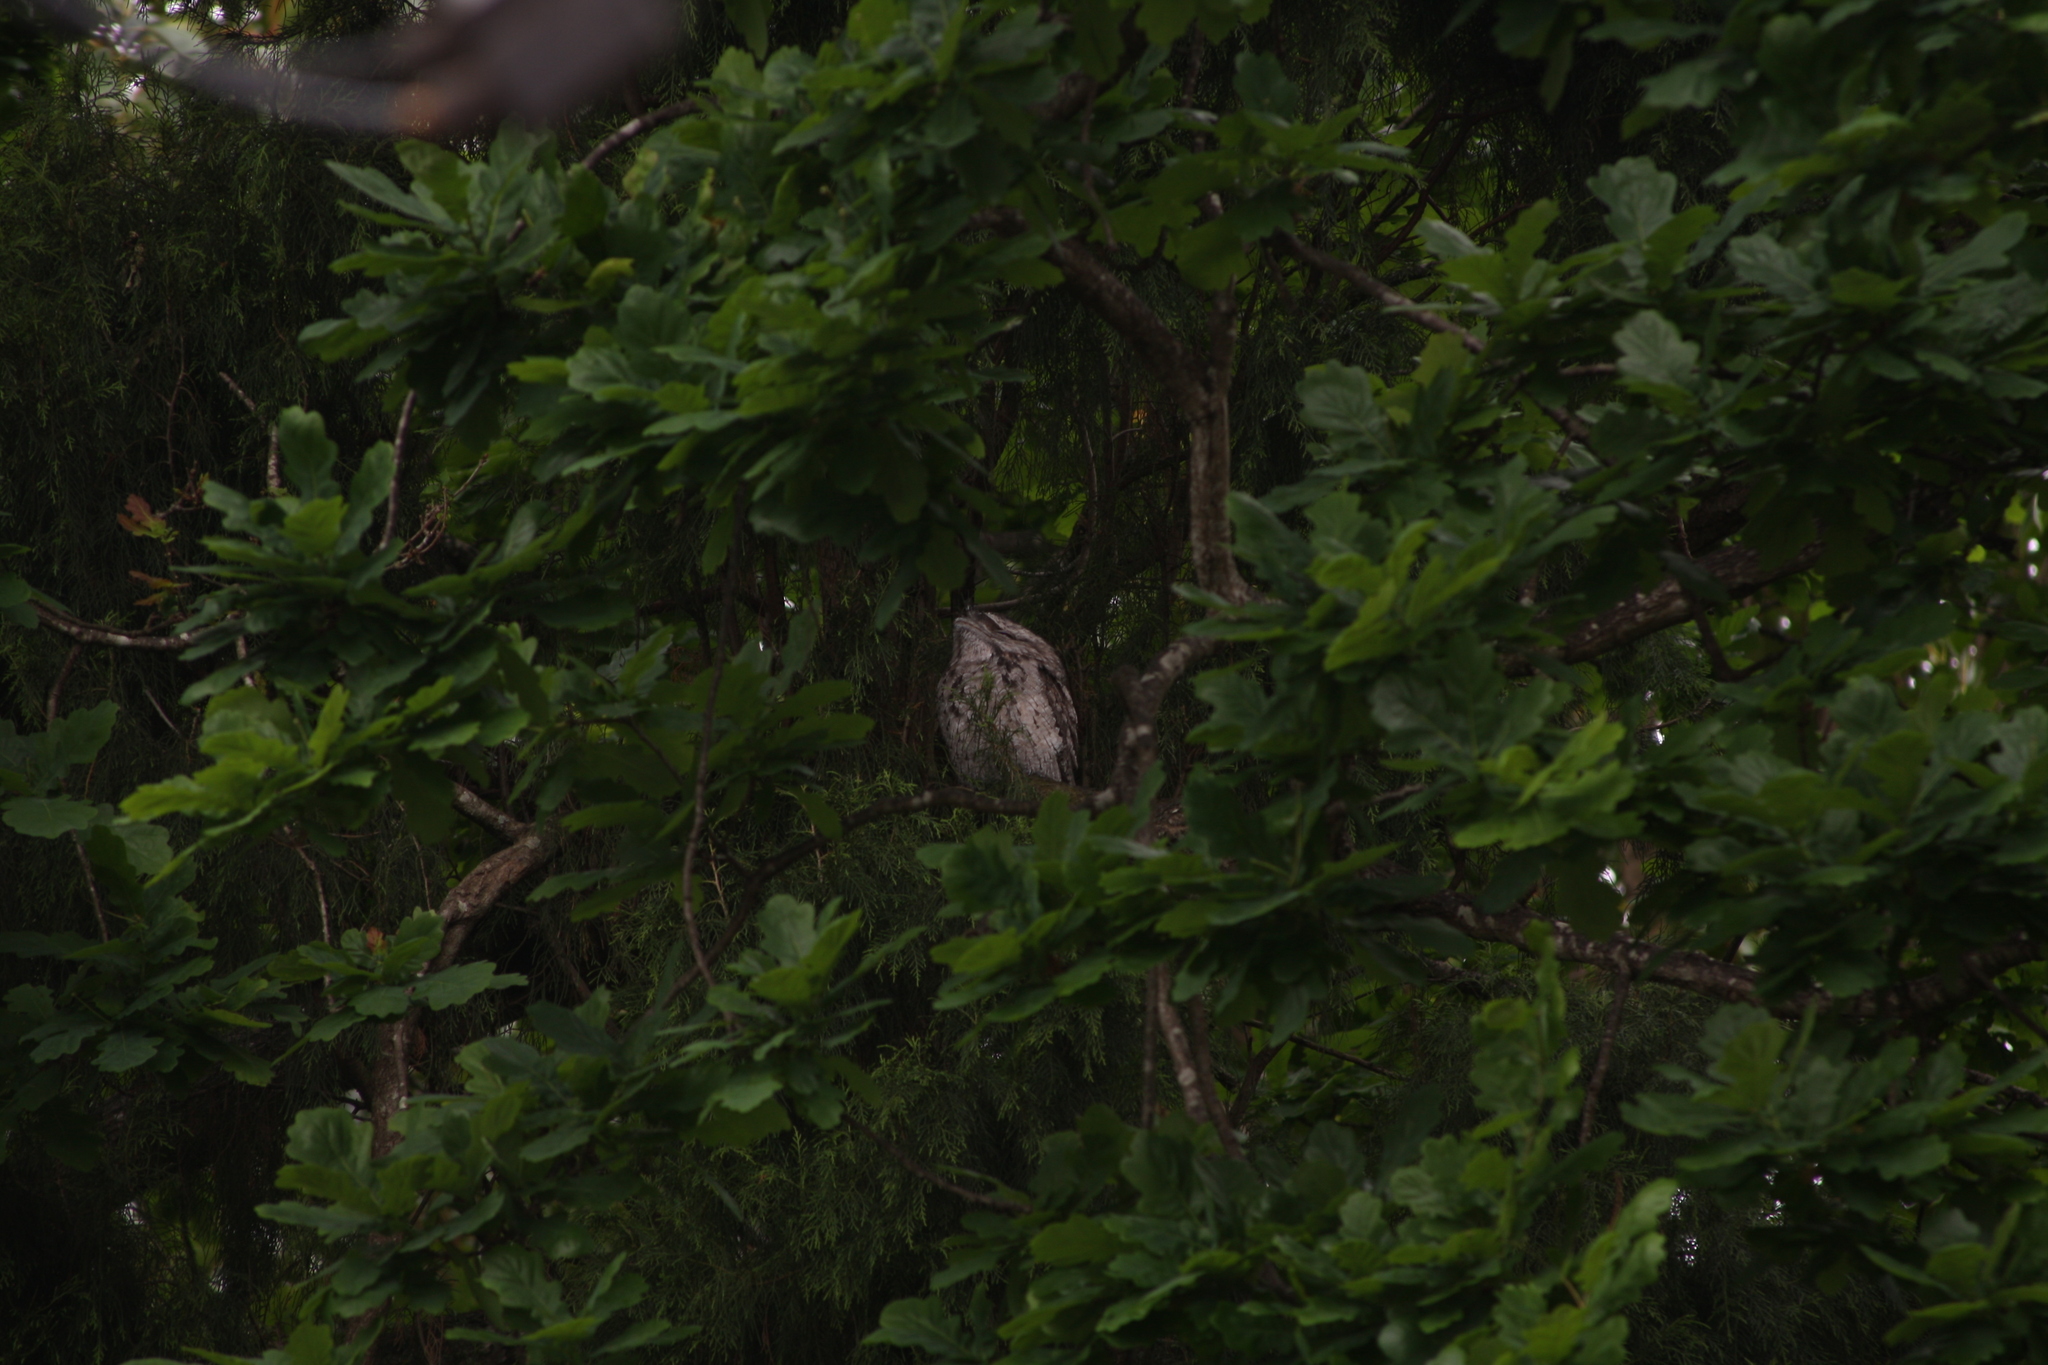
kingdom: Animalia
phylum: Chordata
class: Aves
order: Caprimulgiformes
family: Podargidae
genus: Podargus
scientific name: Podargus strigoides
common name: Tawny frogmouth
